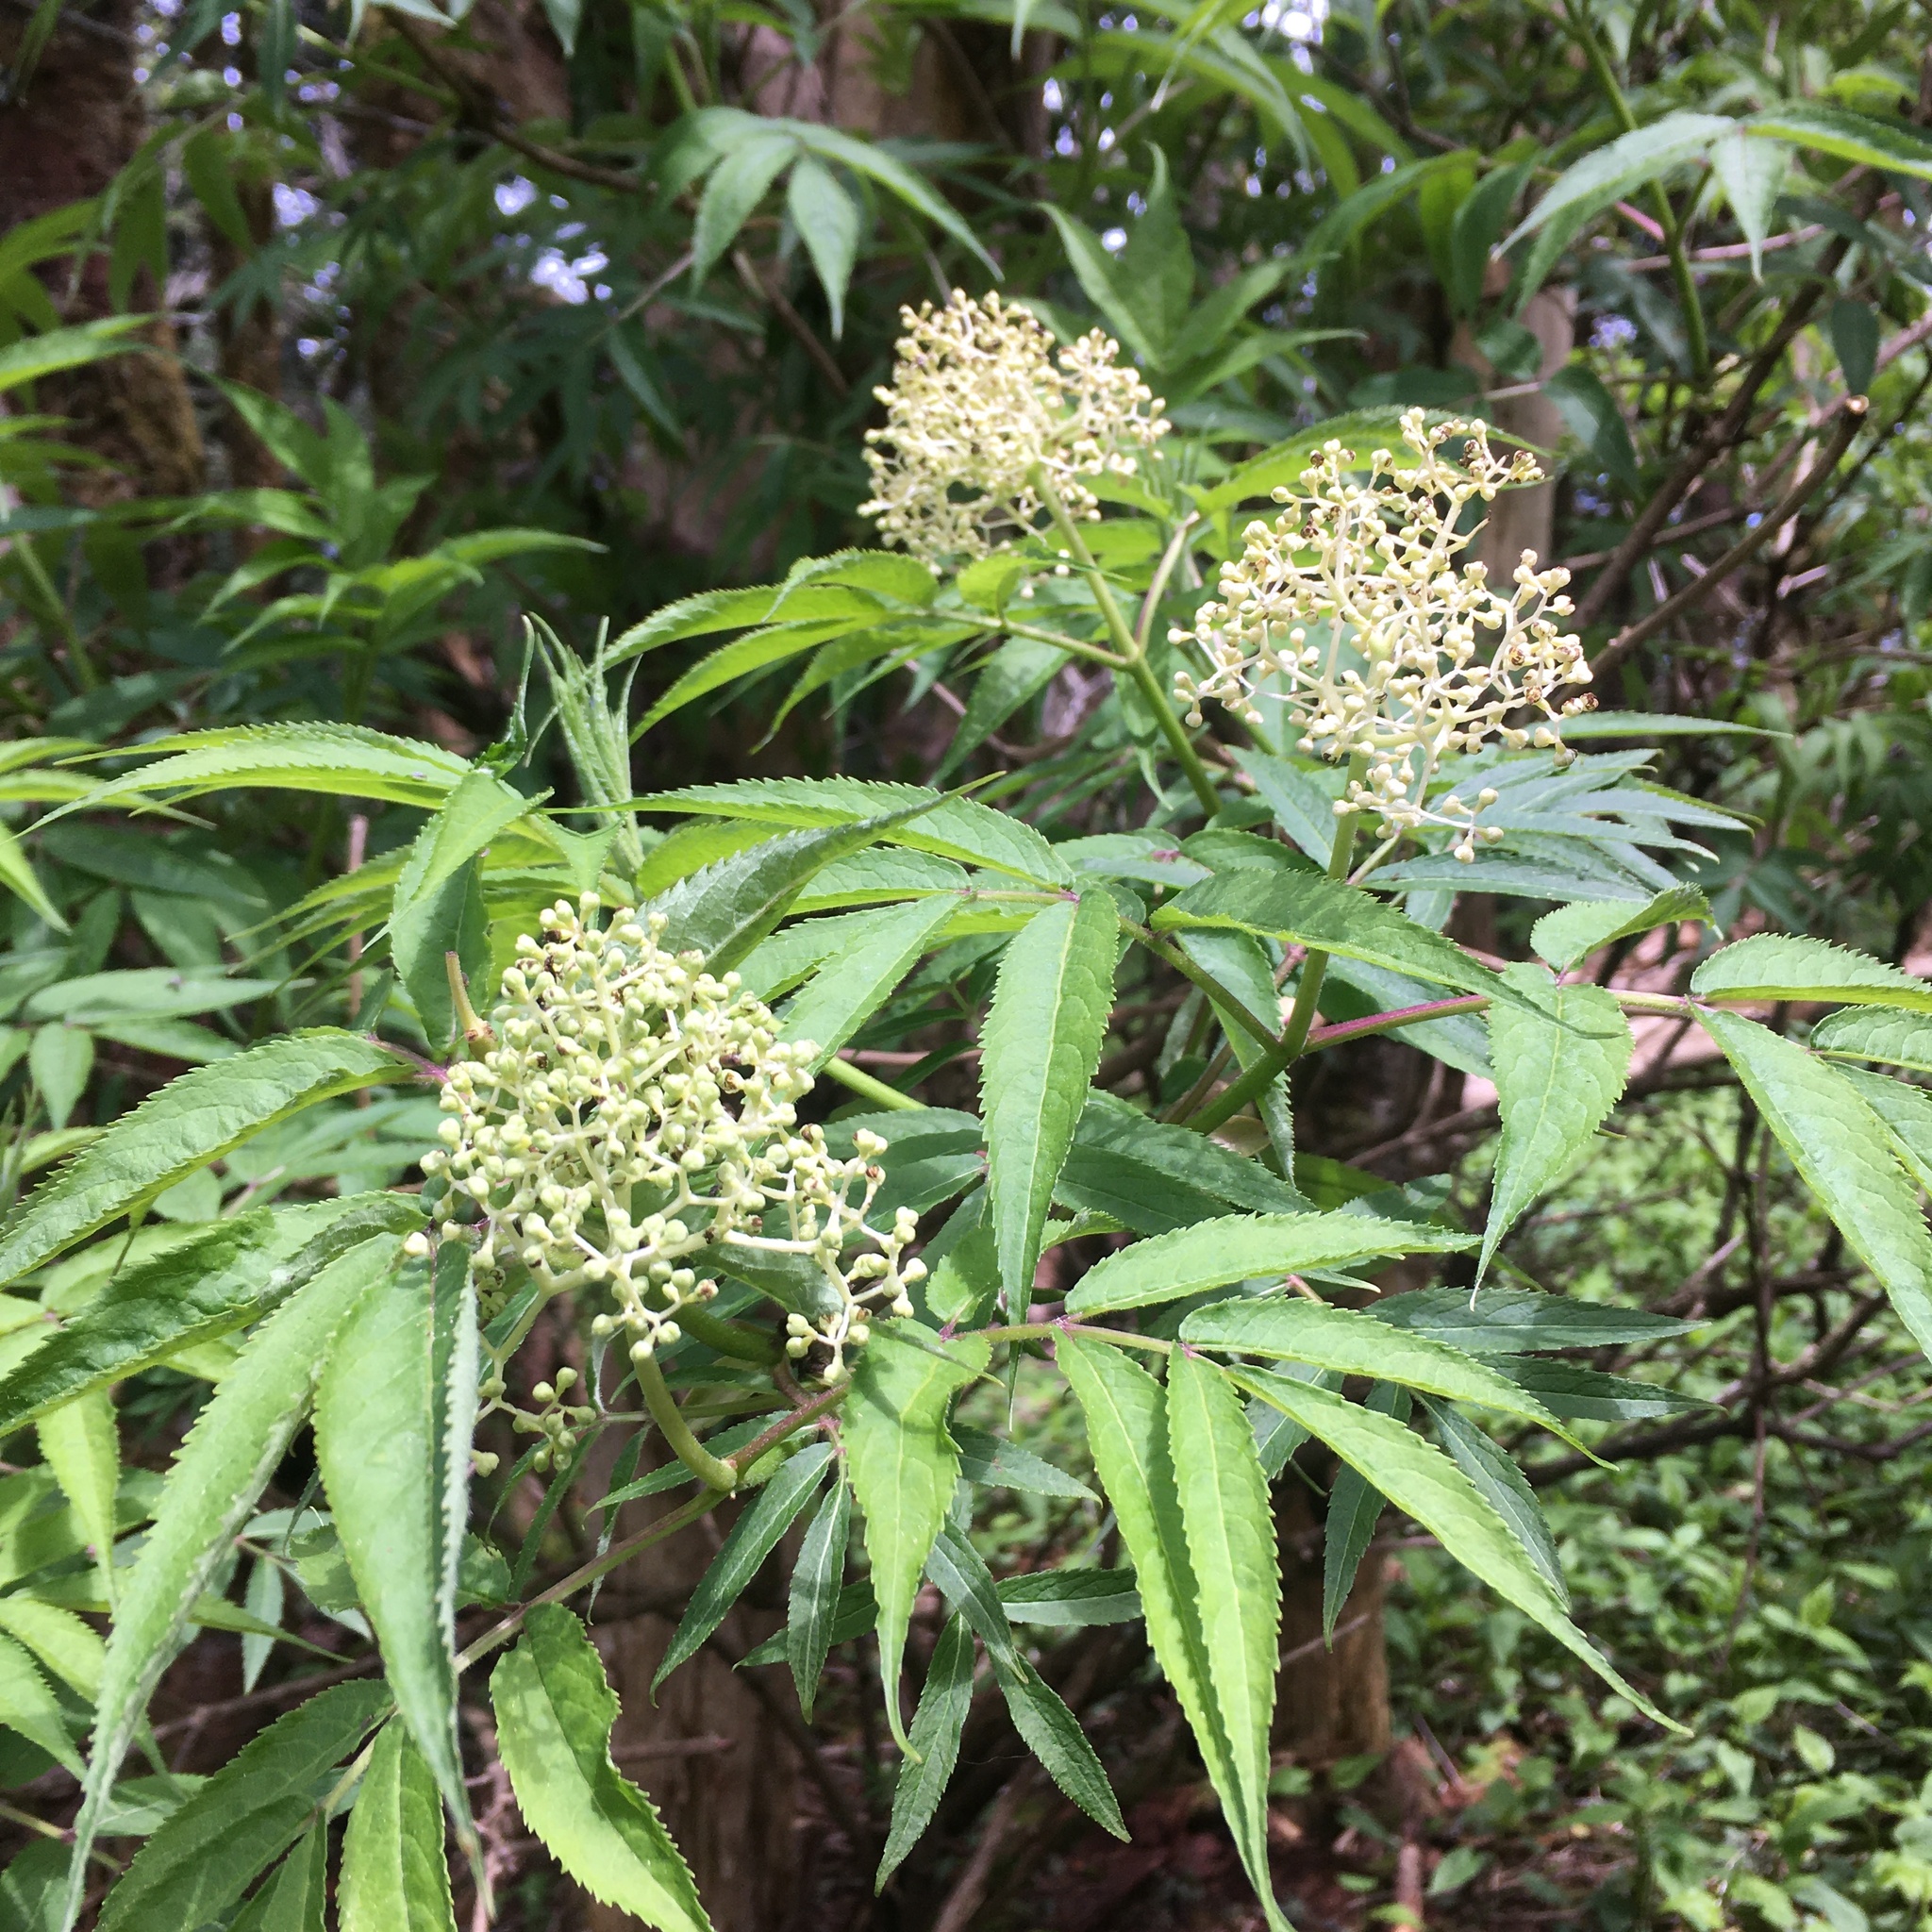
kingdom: Plantae
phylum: Tracheophyta
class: Magnoliopsida
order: Dipsacales
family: Viburnaceae
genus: Sambucus
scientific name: Sambucus racemosa
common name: Red-berried elder
